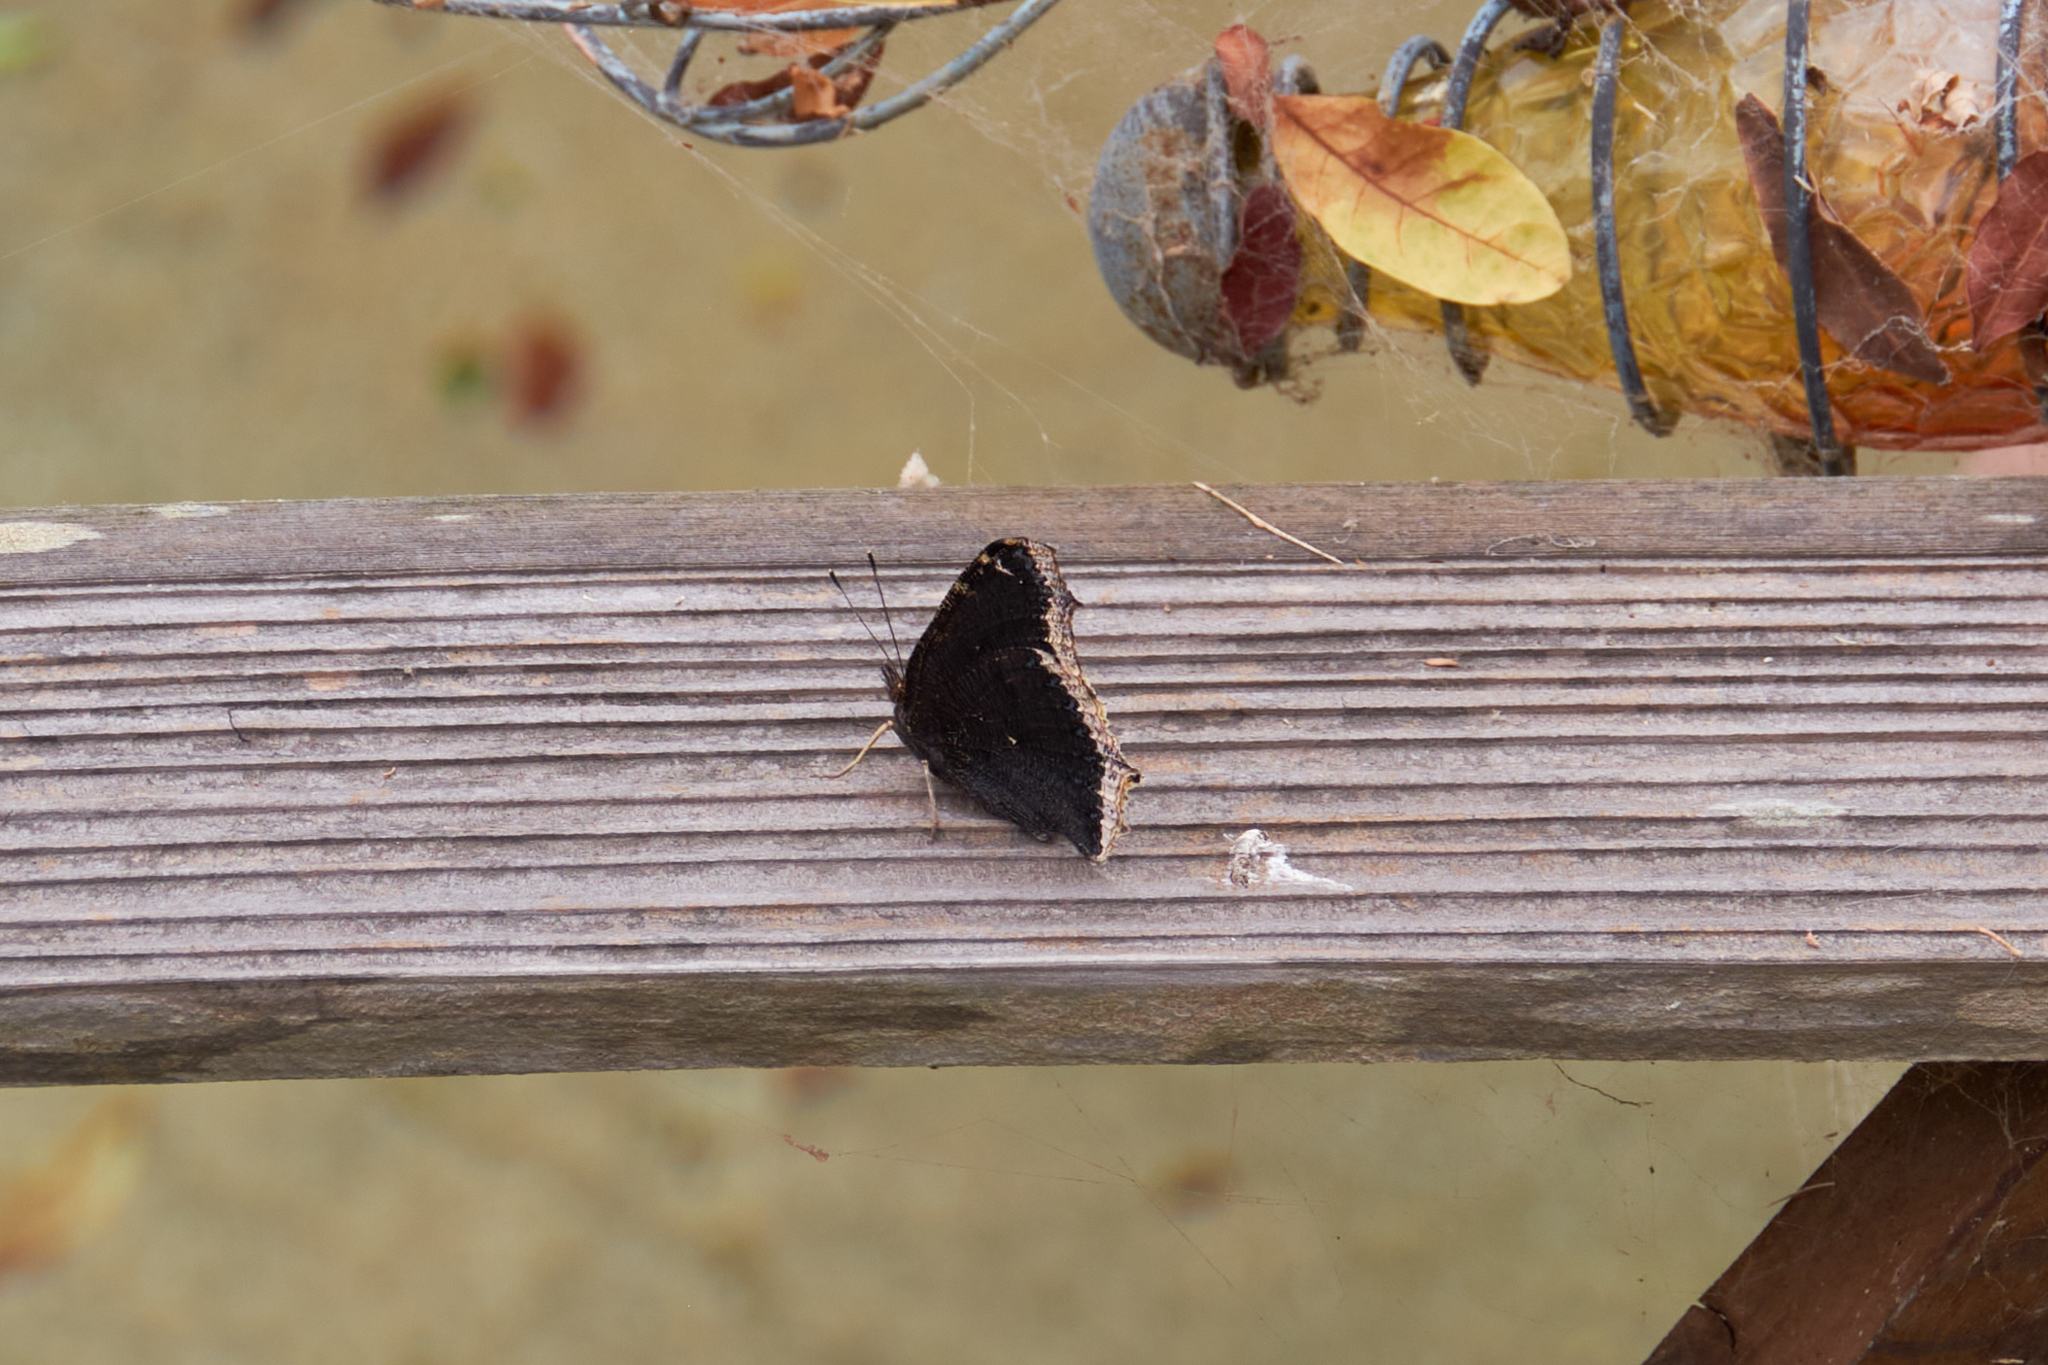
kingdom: Animalia
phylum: Arthropoda
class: Insecta
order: Lepidoptera
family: Nymphalidae
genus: Nymphalis
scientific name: Nymphalis antiopa
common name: Camberwell beauty
